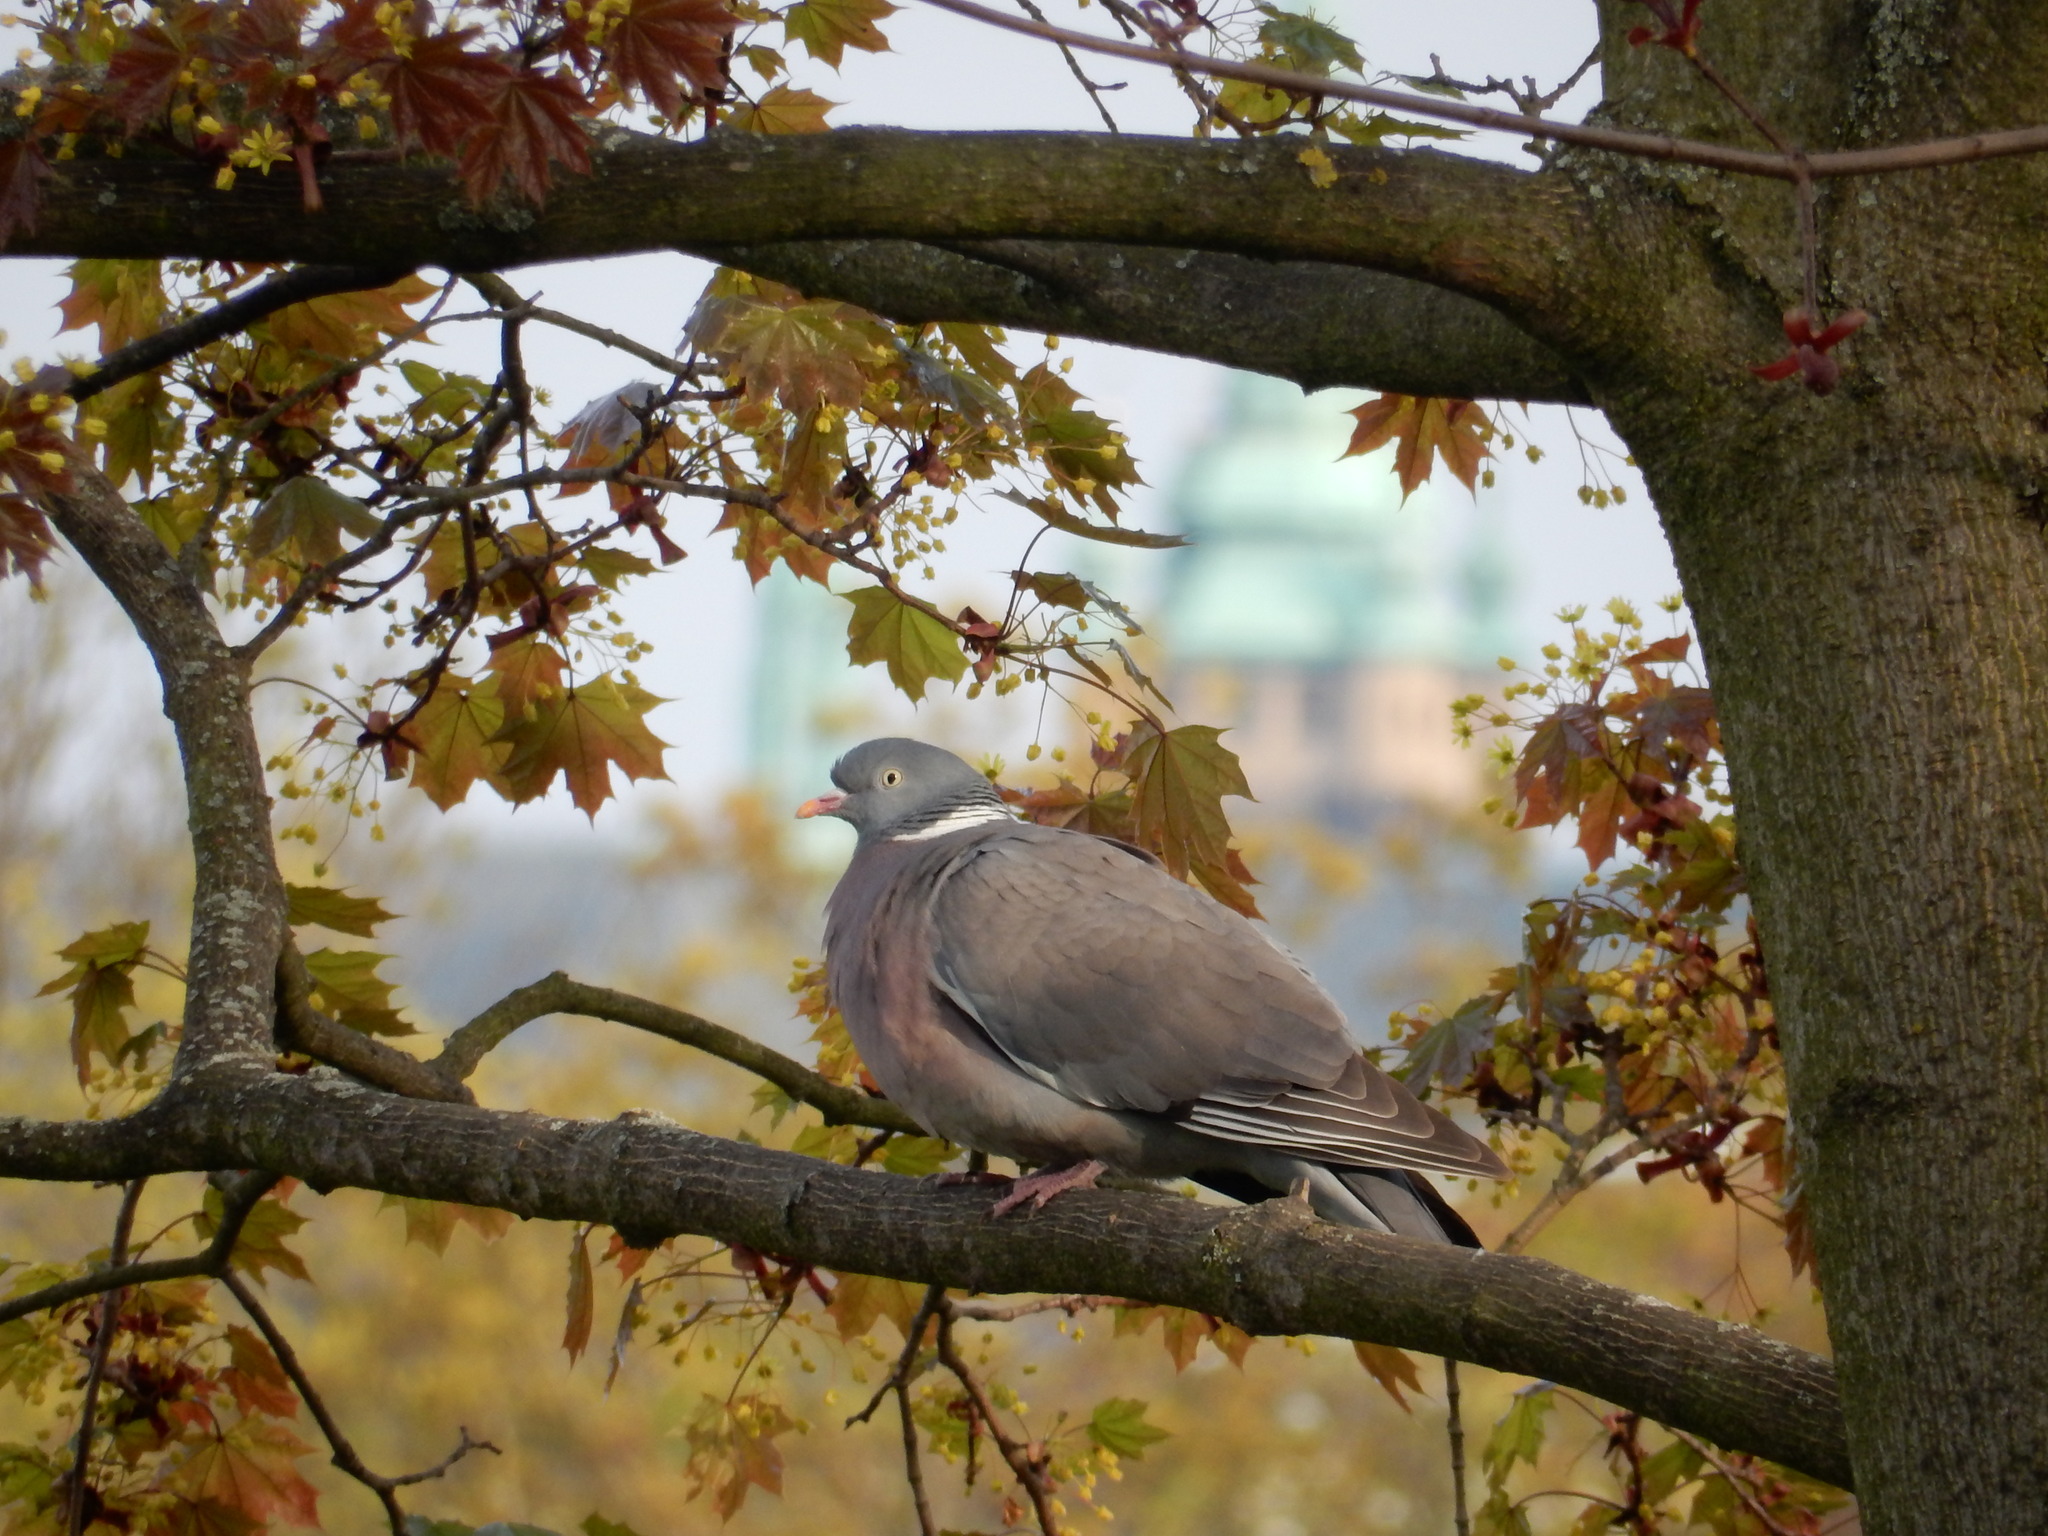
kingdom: Animalia
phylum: Chordata
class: Aves
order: Columbiformes
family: Columbidae
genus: Columba
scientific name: Columba palumbus
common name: Common wood pigeon
